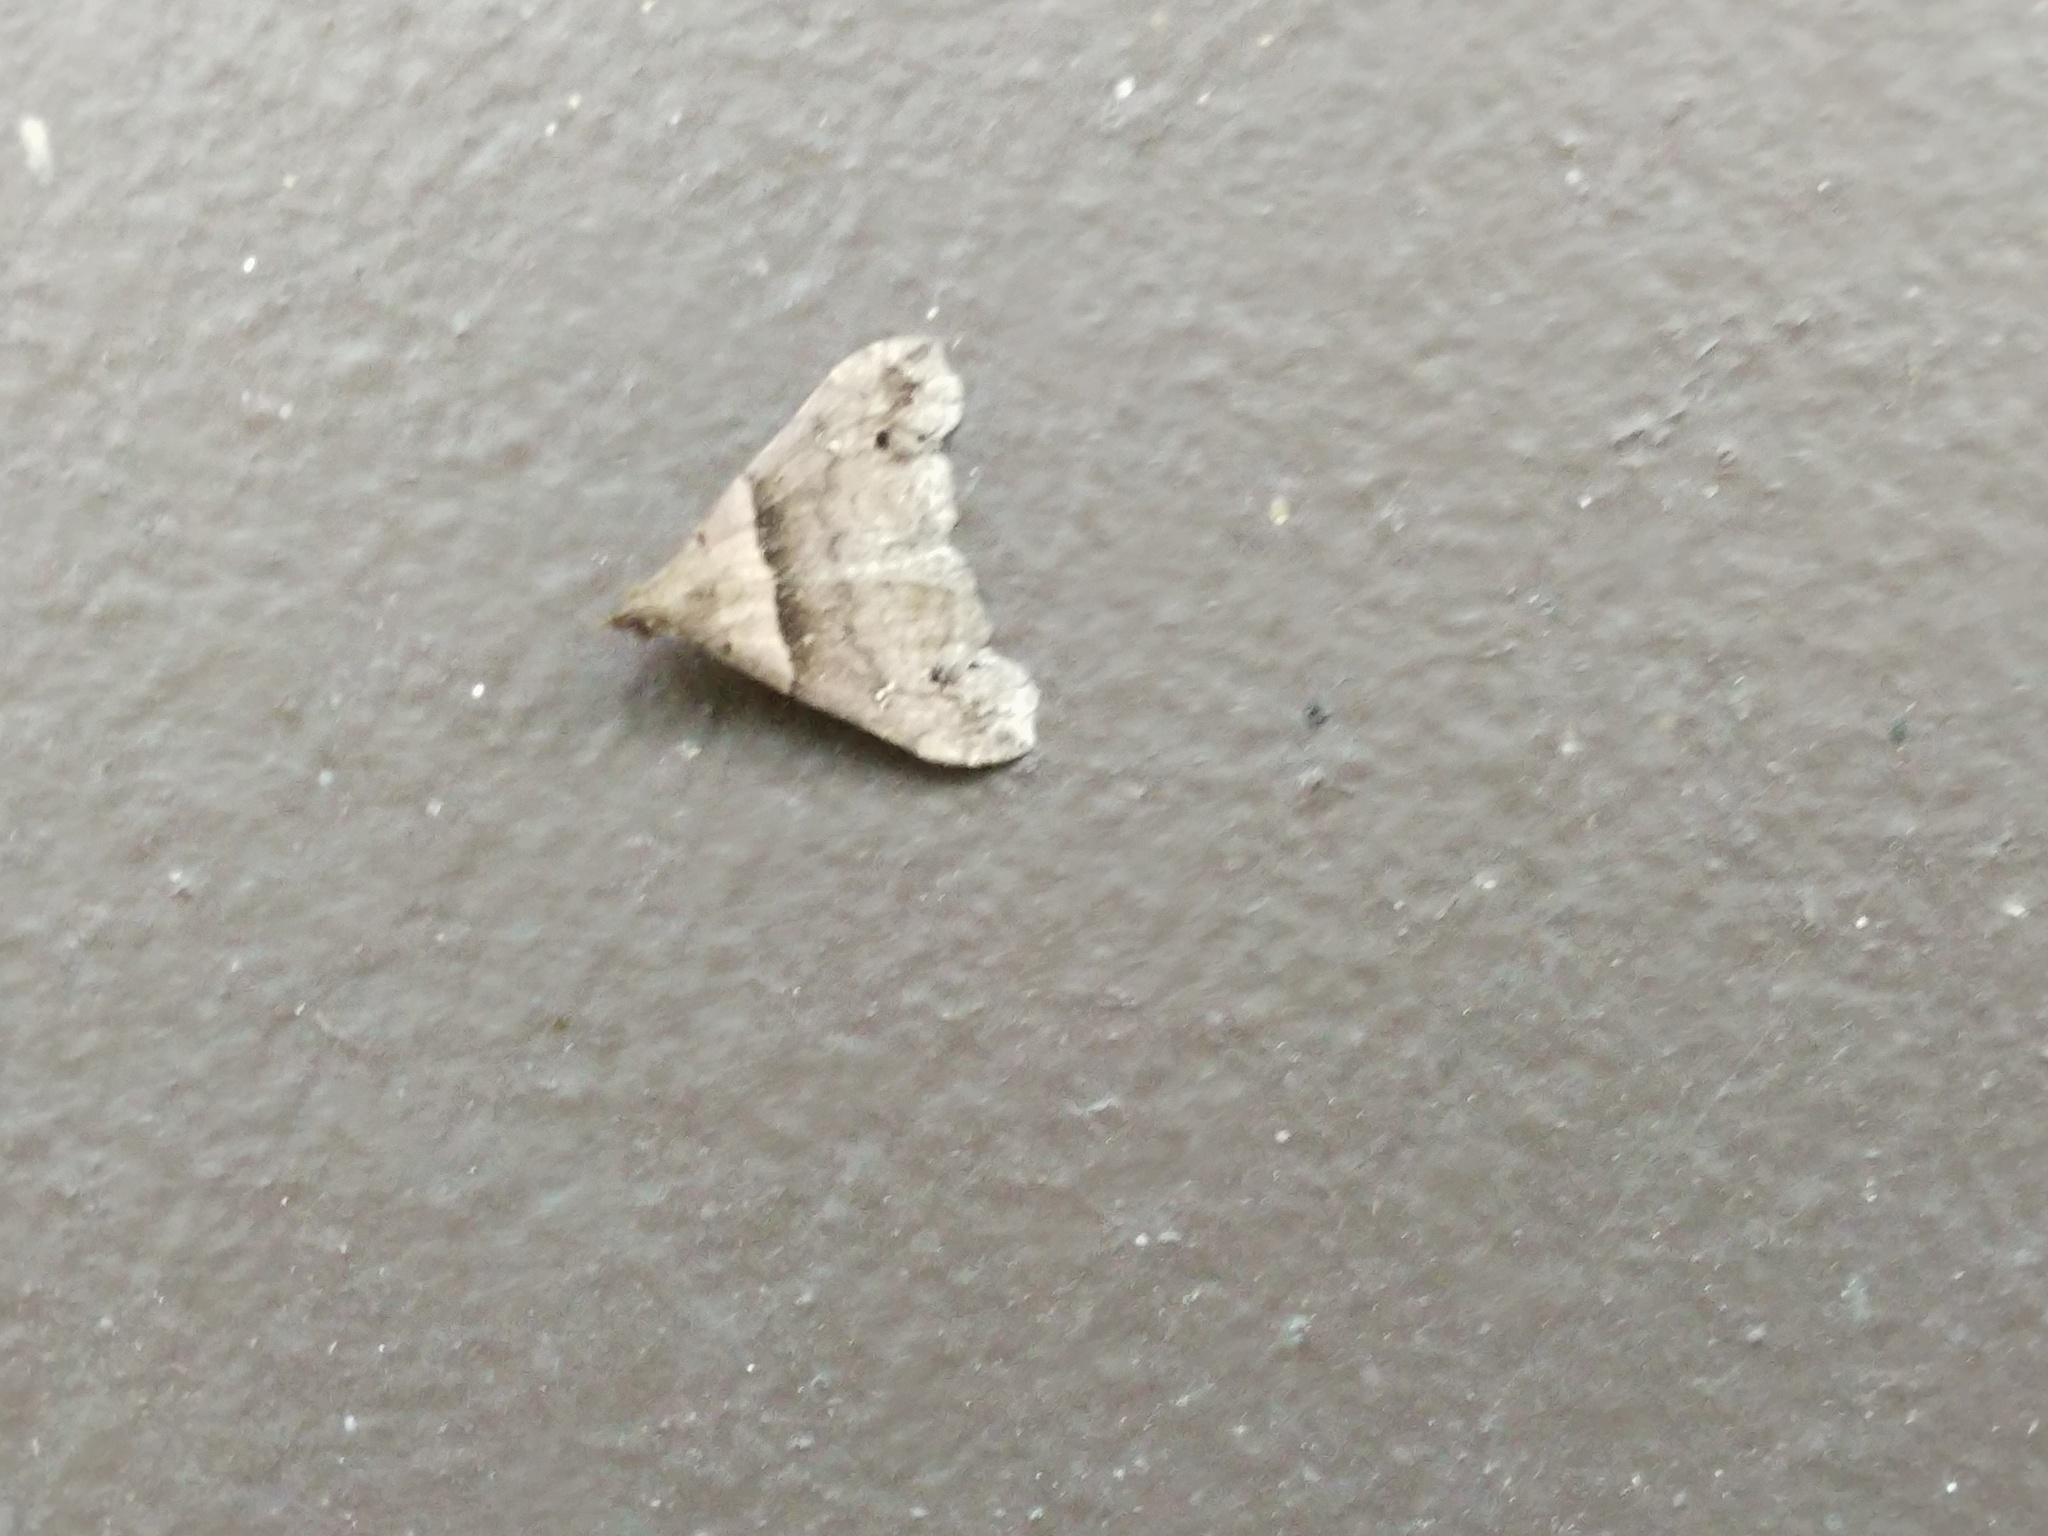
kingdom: Animalia
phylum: Arthropoda
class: Insecta
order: Lepidoptera
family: Erebidae
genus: Lascoria
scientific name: Lascoria ambigualis
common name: Ambiguous moth
